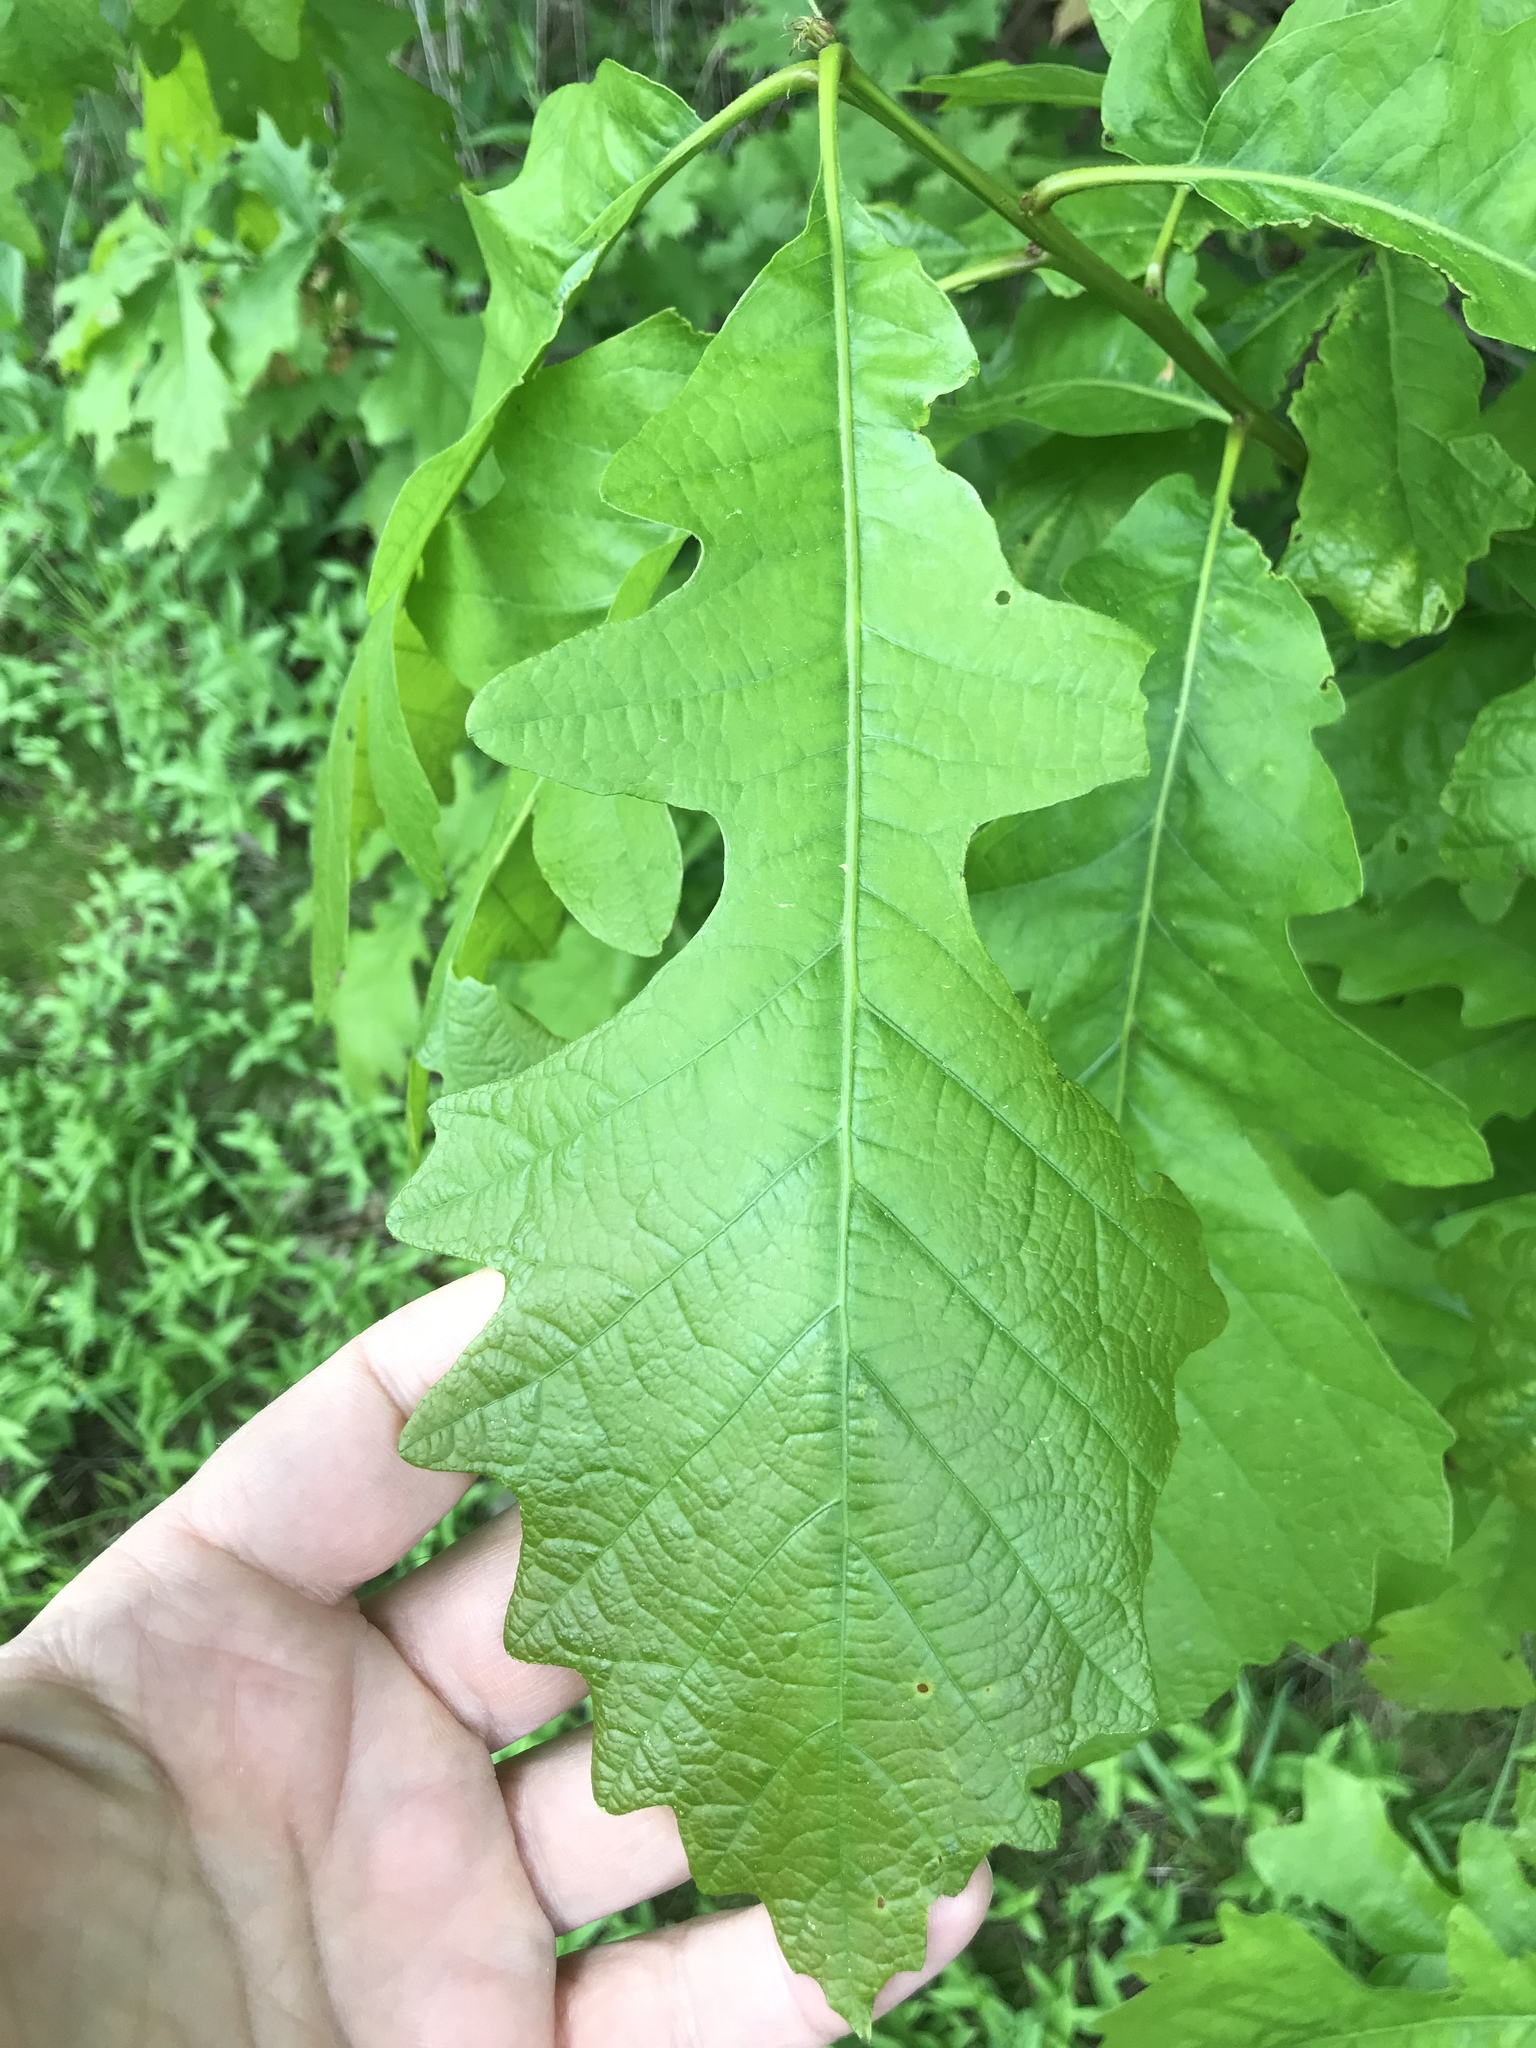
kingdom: Plantae
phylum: Tracheophyta
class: Magnoliopsida
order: Fagales
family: Fagaceae
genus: Quercus
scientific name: Quercus macrocarpa
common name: Bur oak
